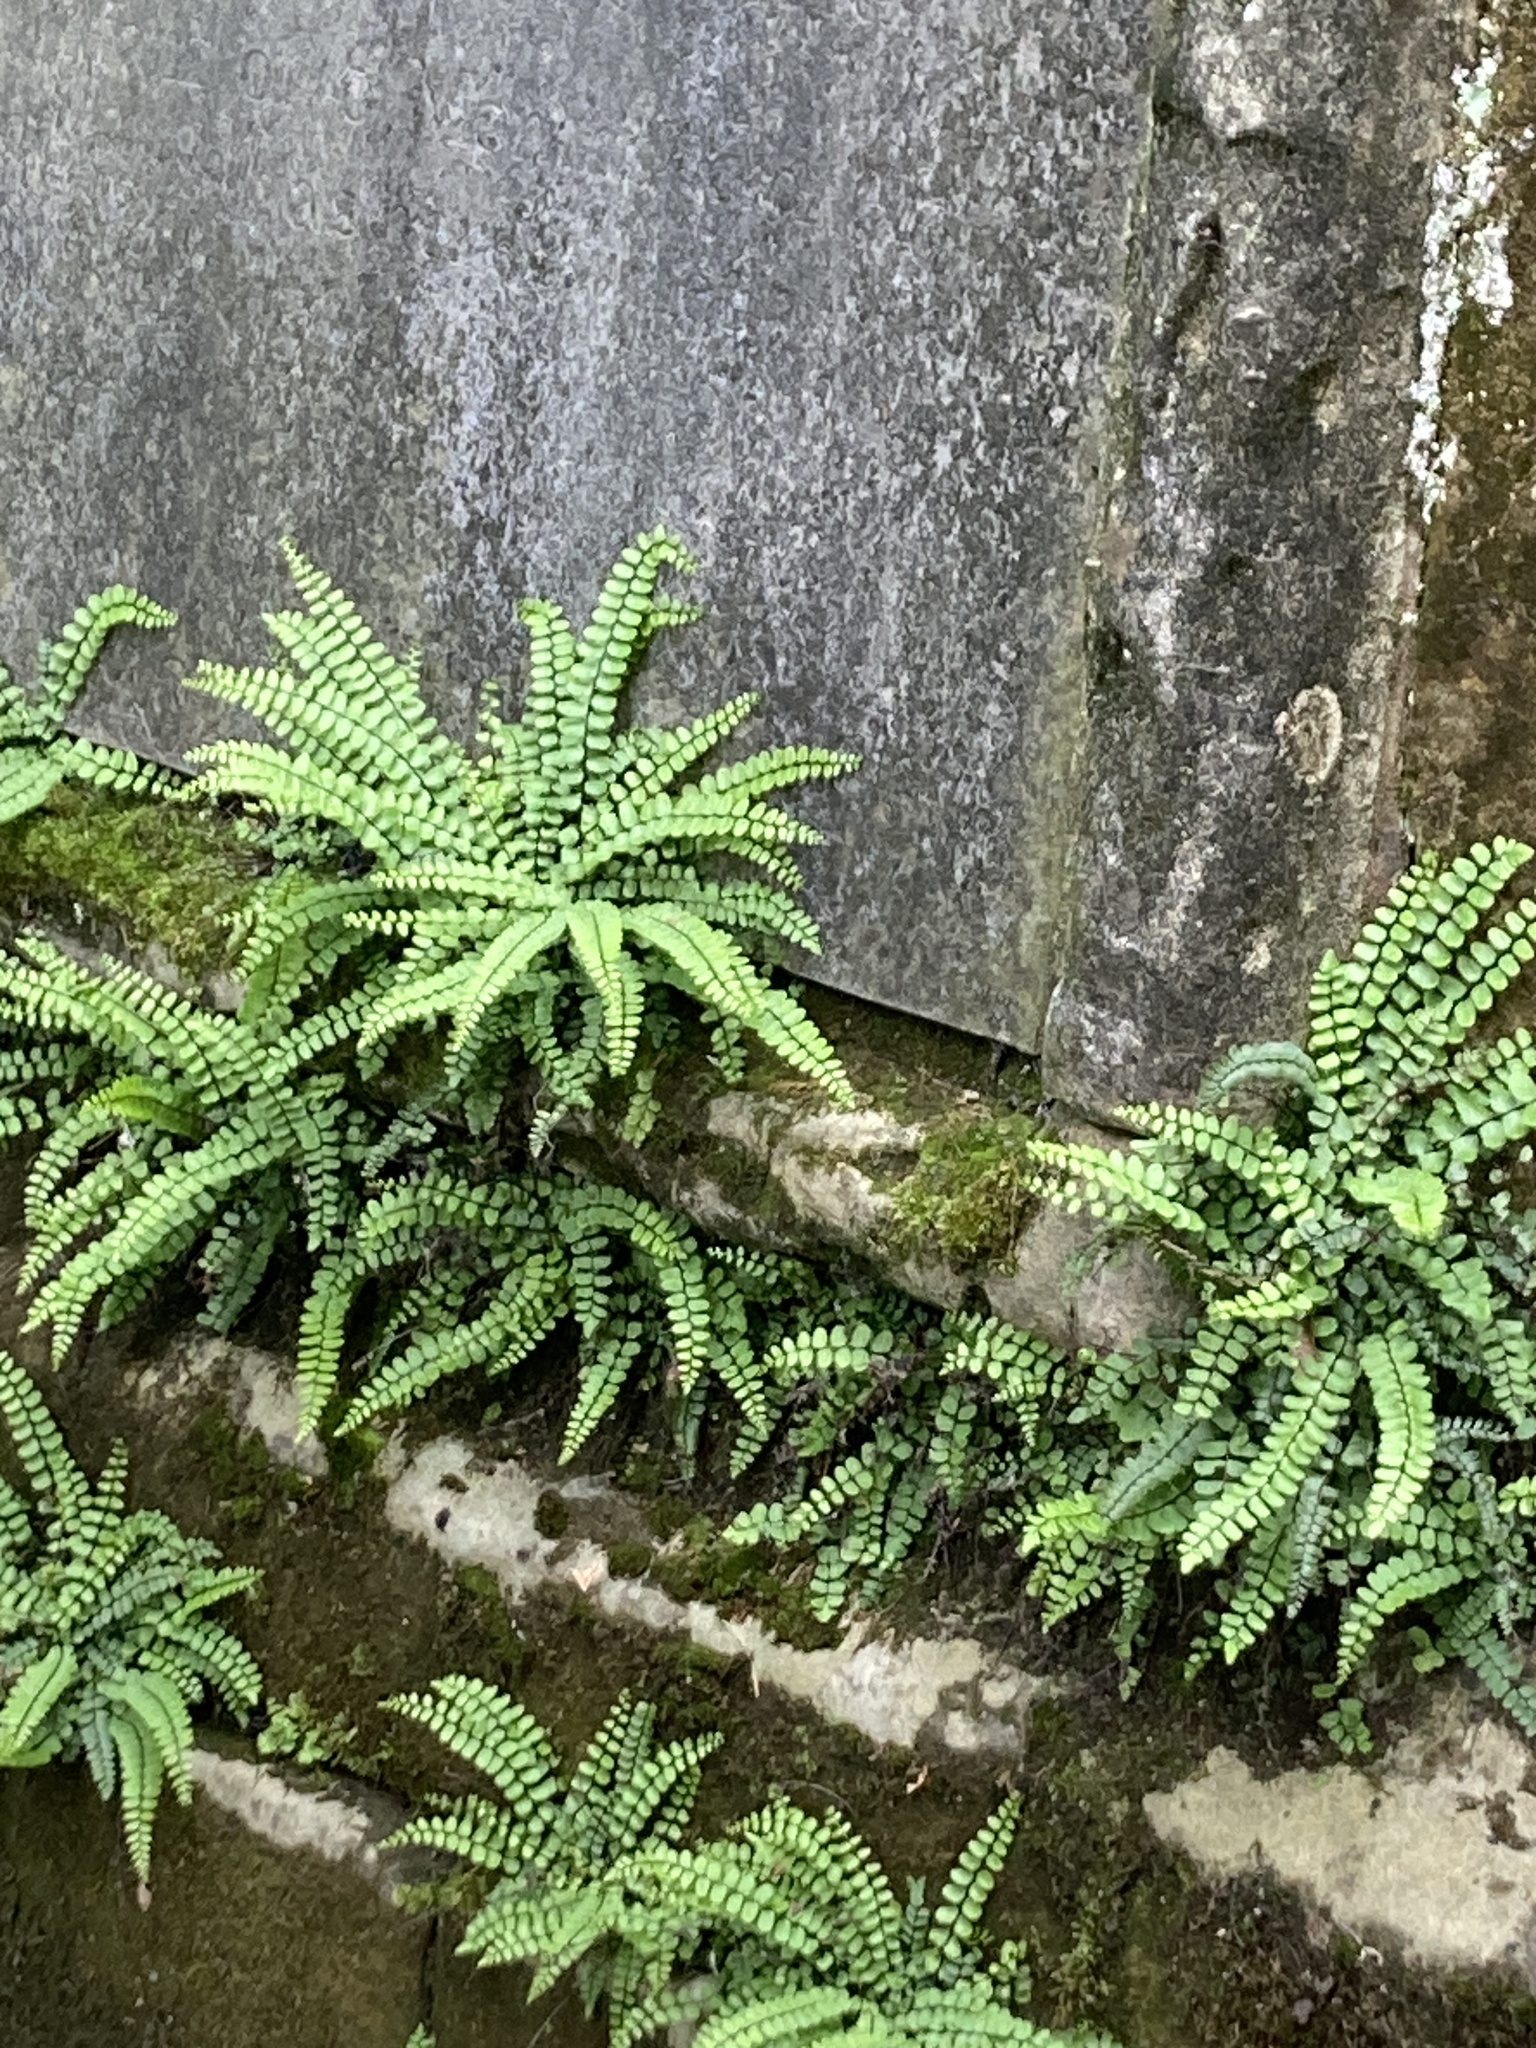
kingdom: Plantae
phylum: Tracheophyta
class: Polypodiopsida
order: Polypodiales
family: Aspleniaceae
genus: Asplenium
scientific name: Asplenium trichomanes
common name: Maidenhair spleenwort
